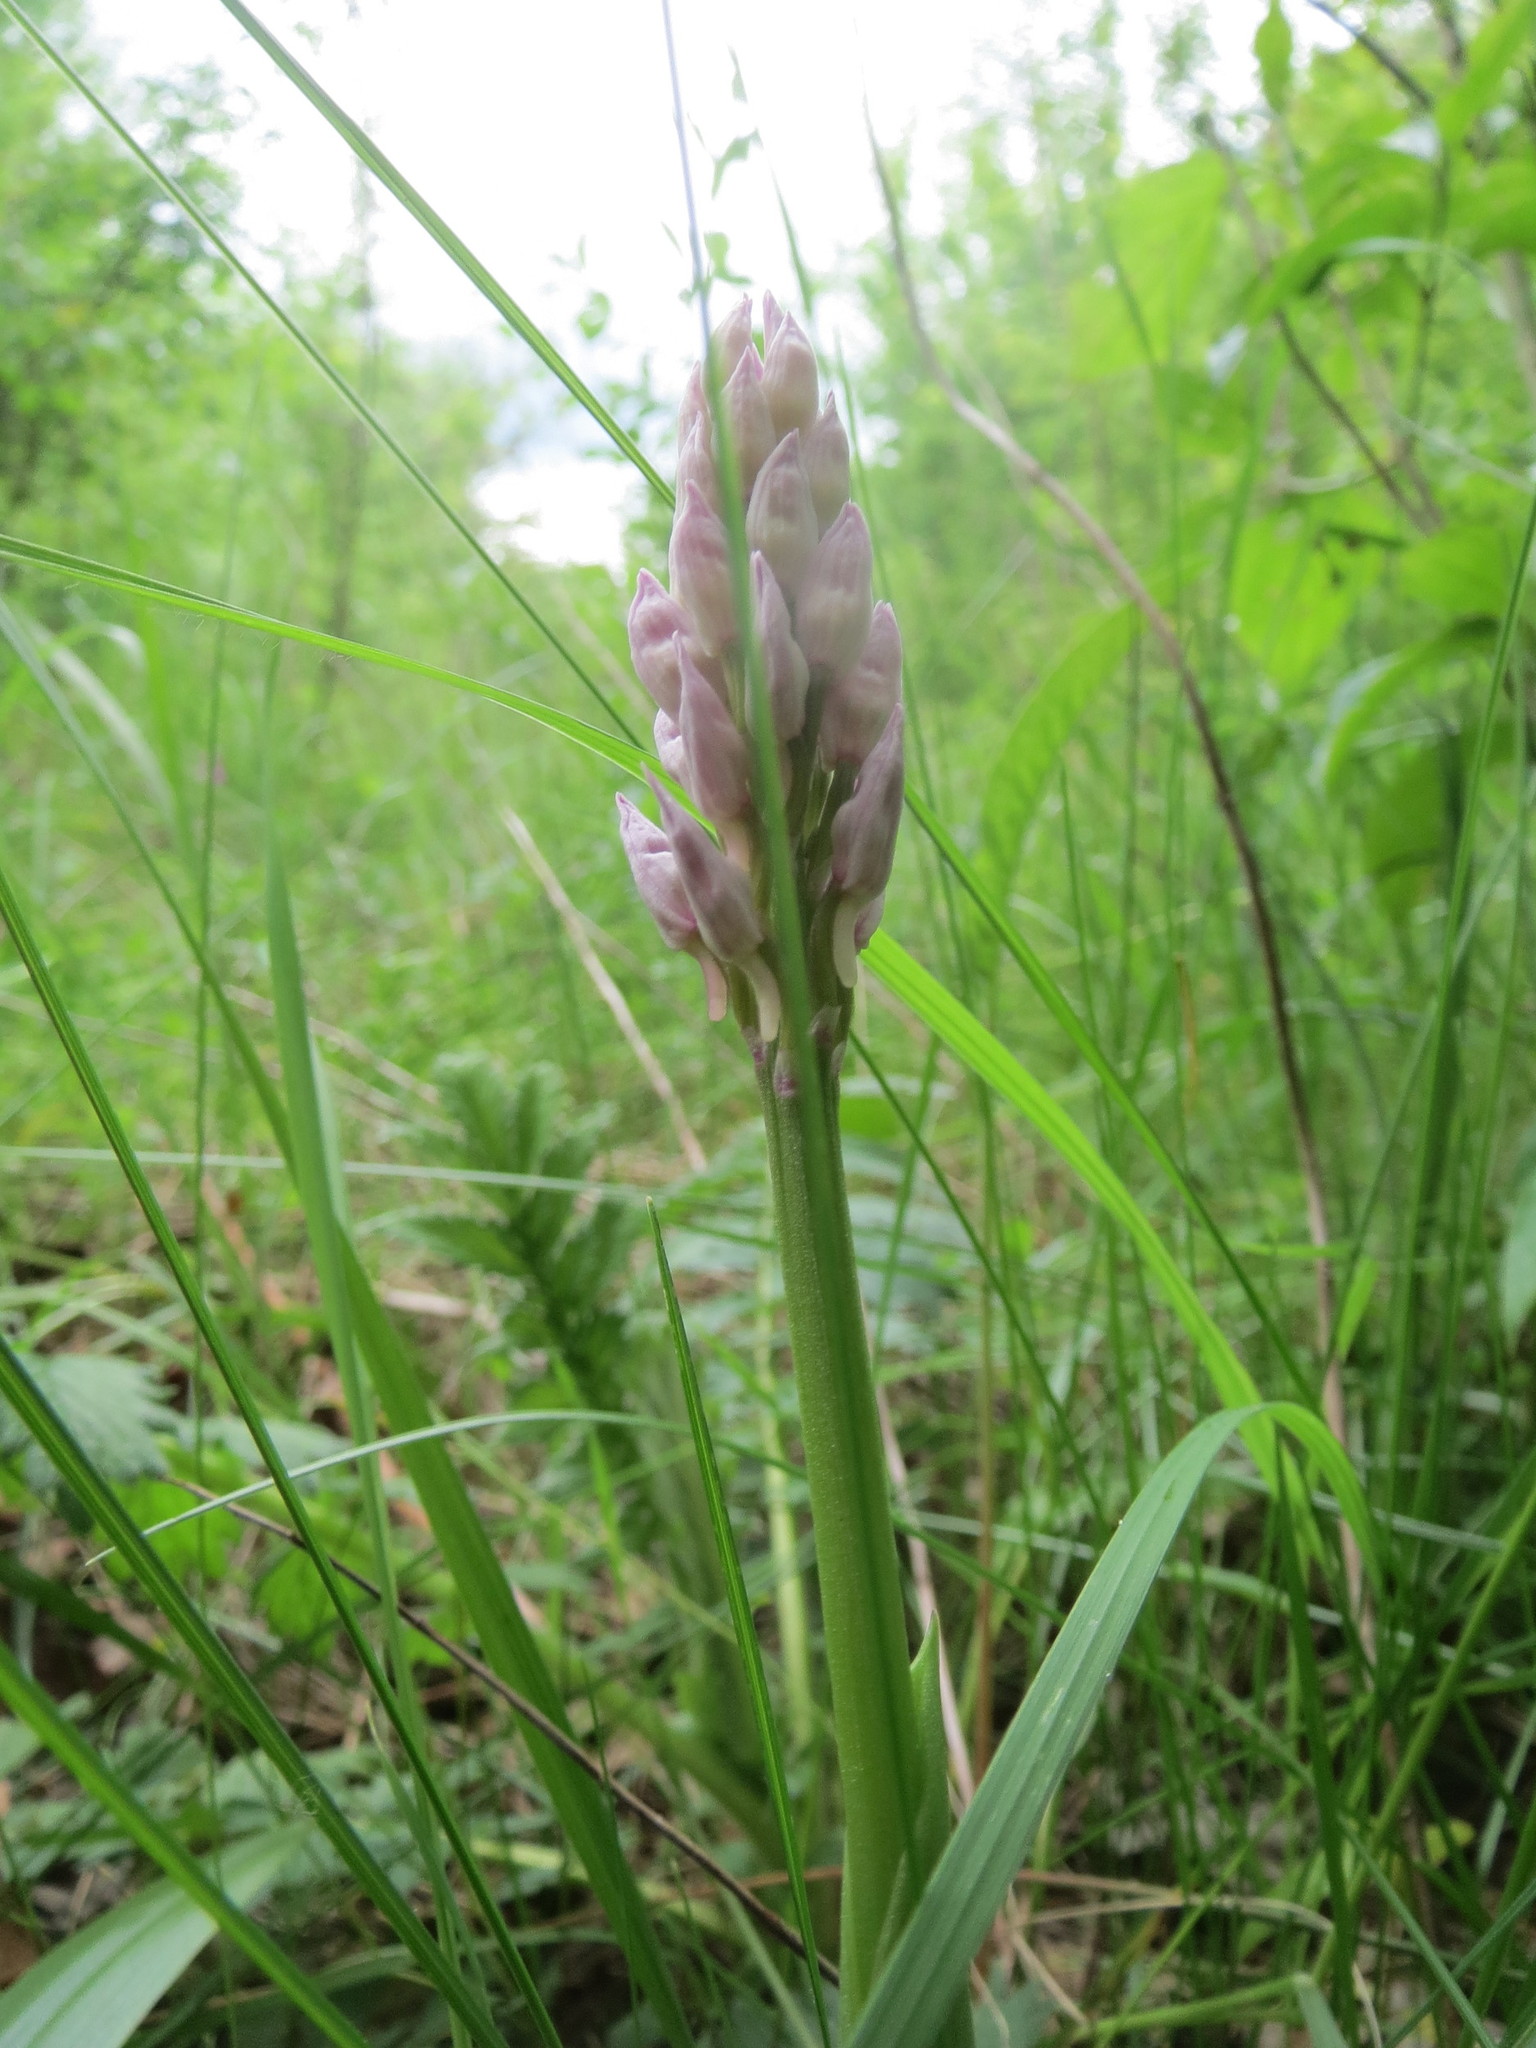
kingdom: Plantae
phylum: Tracheophyta
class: Liliopsida
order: Asparagales
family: Orchidaceae
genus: Orchis
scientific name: Orchis militaris
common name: Military orchid
